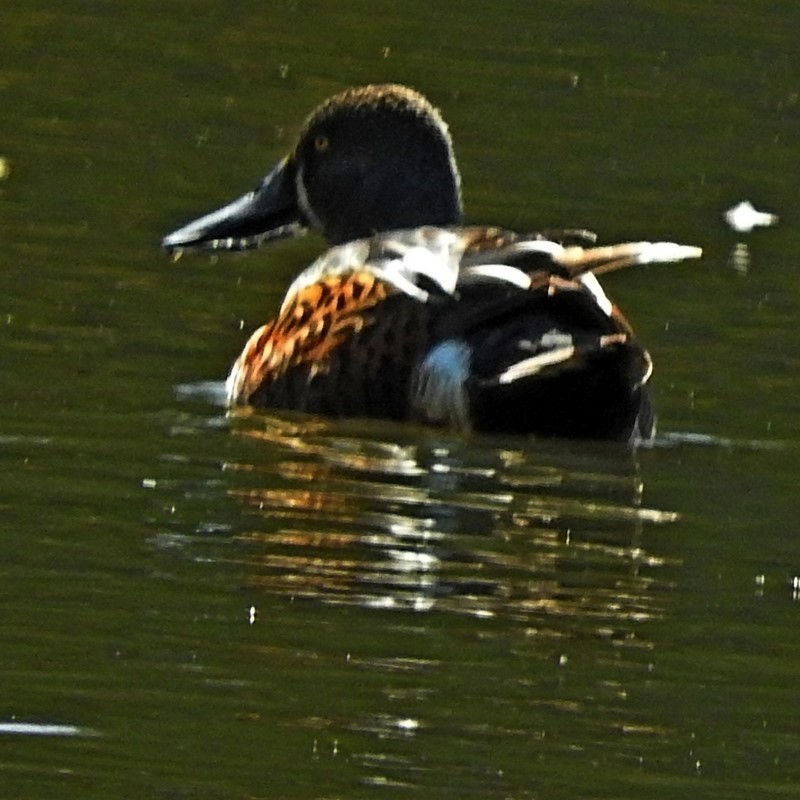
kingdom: Animalia
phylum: Chordata
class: Aves
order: Anseriformes
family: Anatidae
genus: Spatula
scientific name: Spatula rhynchotis
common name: Australian shoveler
